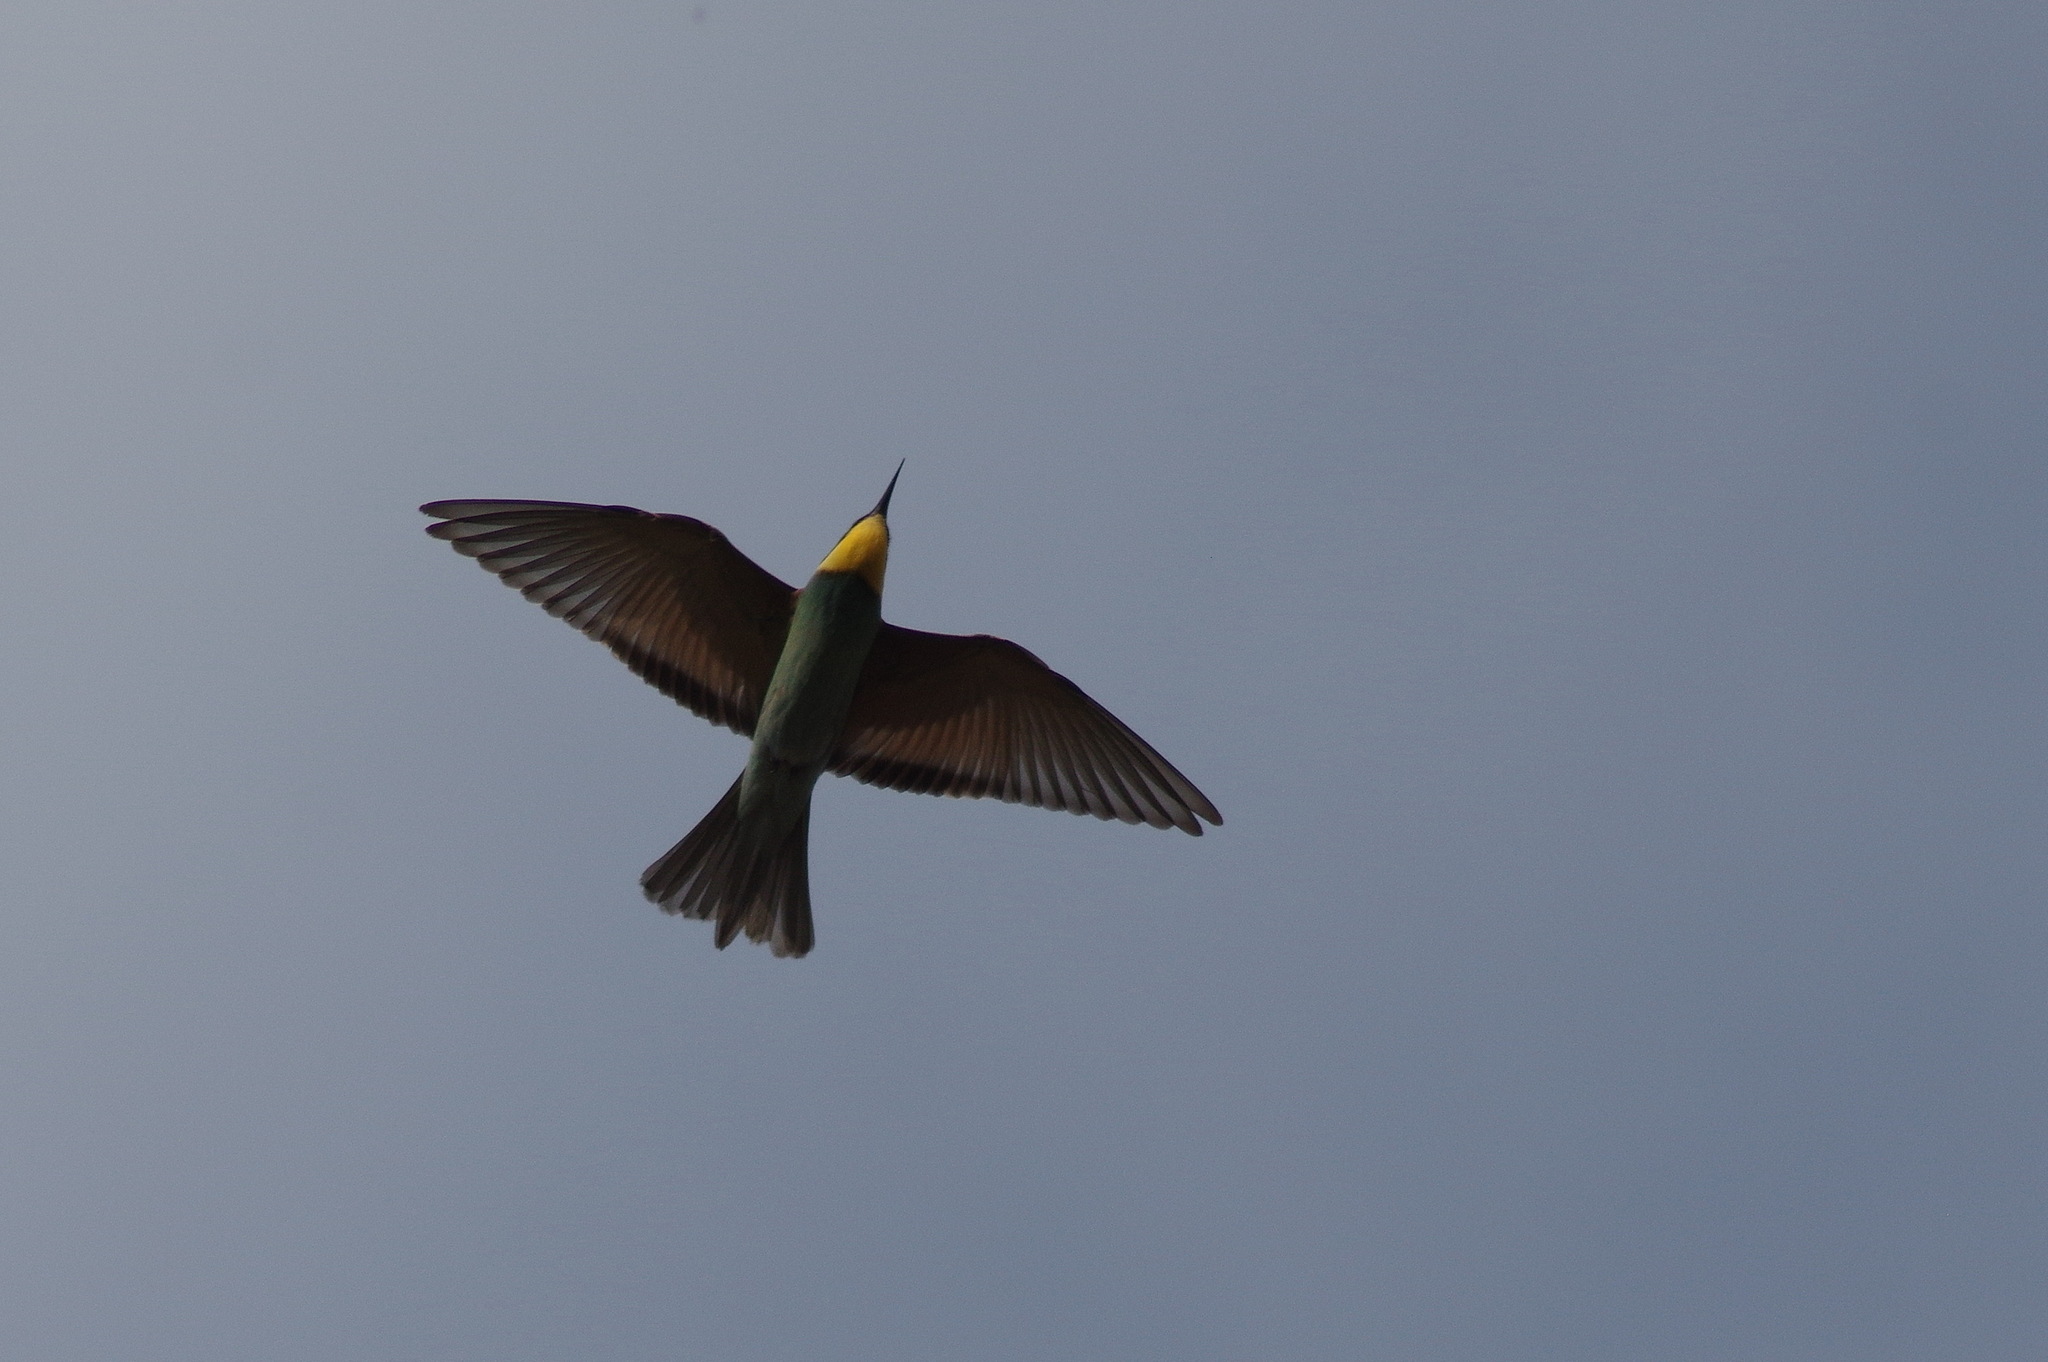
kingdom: Animalia
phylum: Chordata
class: Aves
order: Coraciiformes
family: Meropidae
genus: Merops
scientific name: Merops apiaster
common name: European bee-eater
